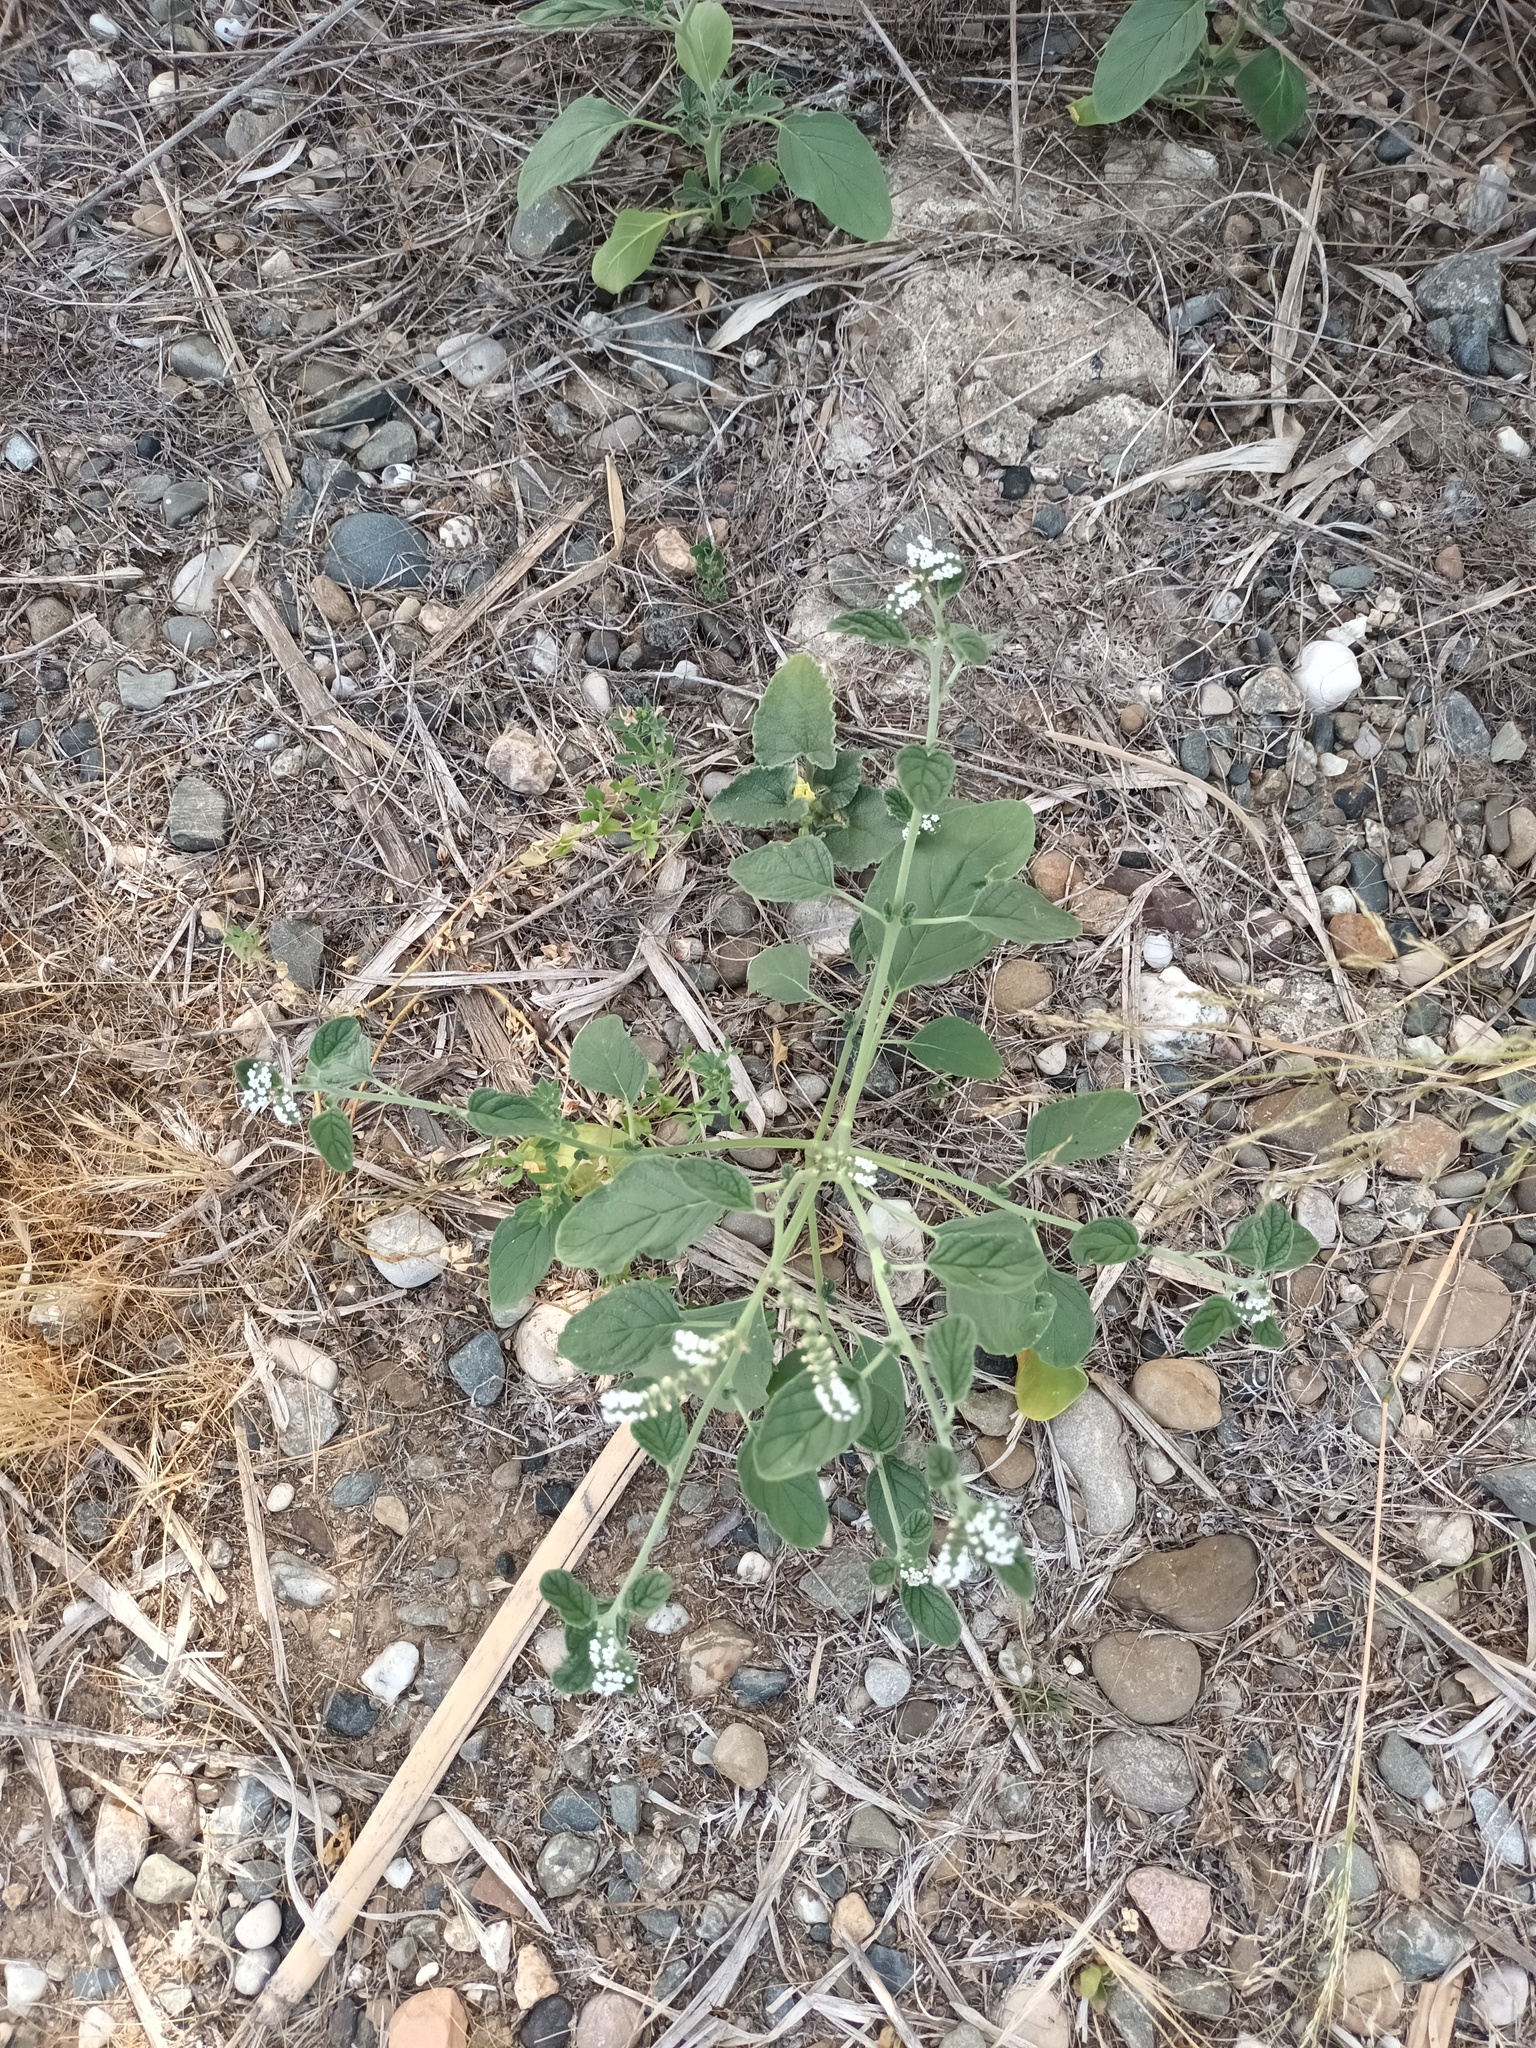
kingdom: Plantae
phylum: Tracheophyta
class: Magnoliopsida
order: Boraginales
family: Heliotropiaceae
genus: Heliotropium
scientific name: Heliotropium europaeum
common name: European heliotrope
